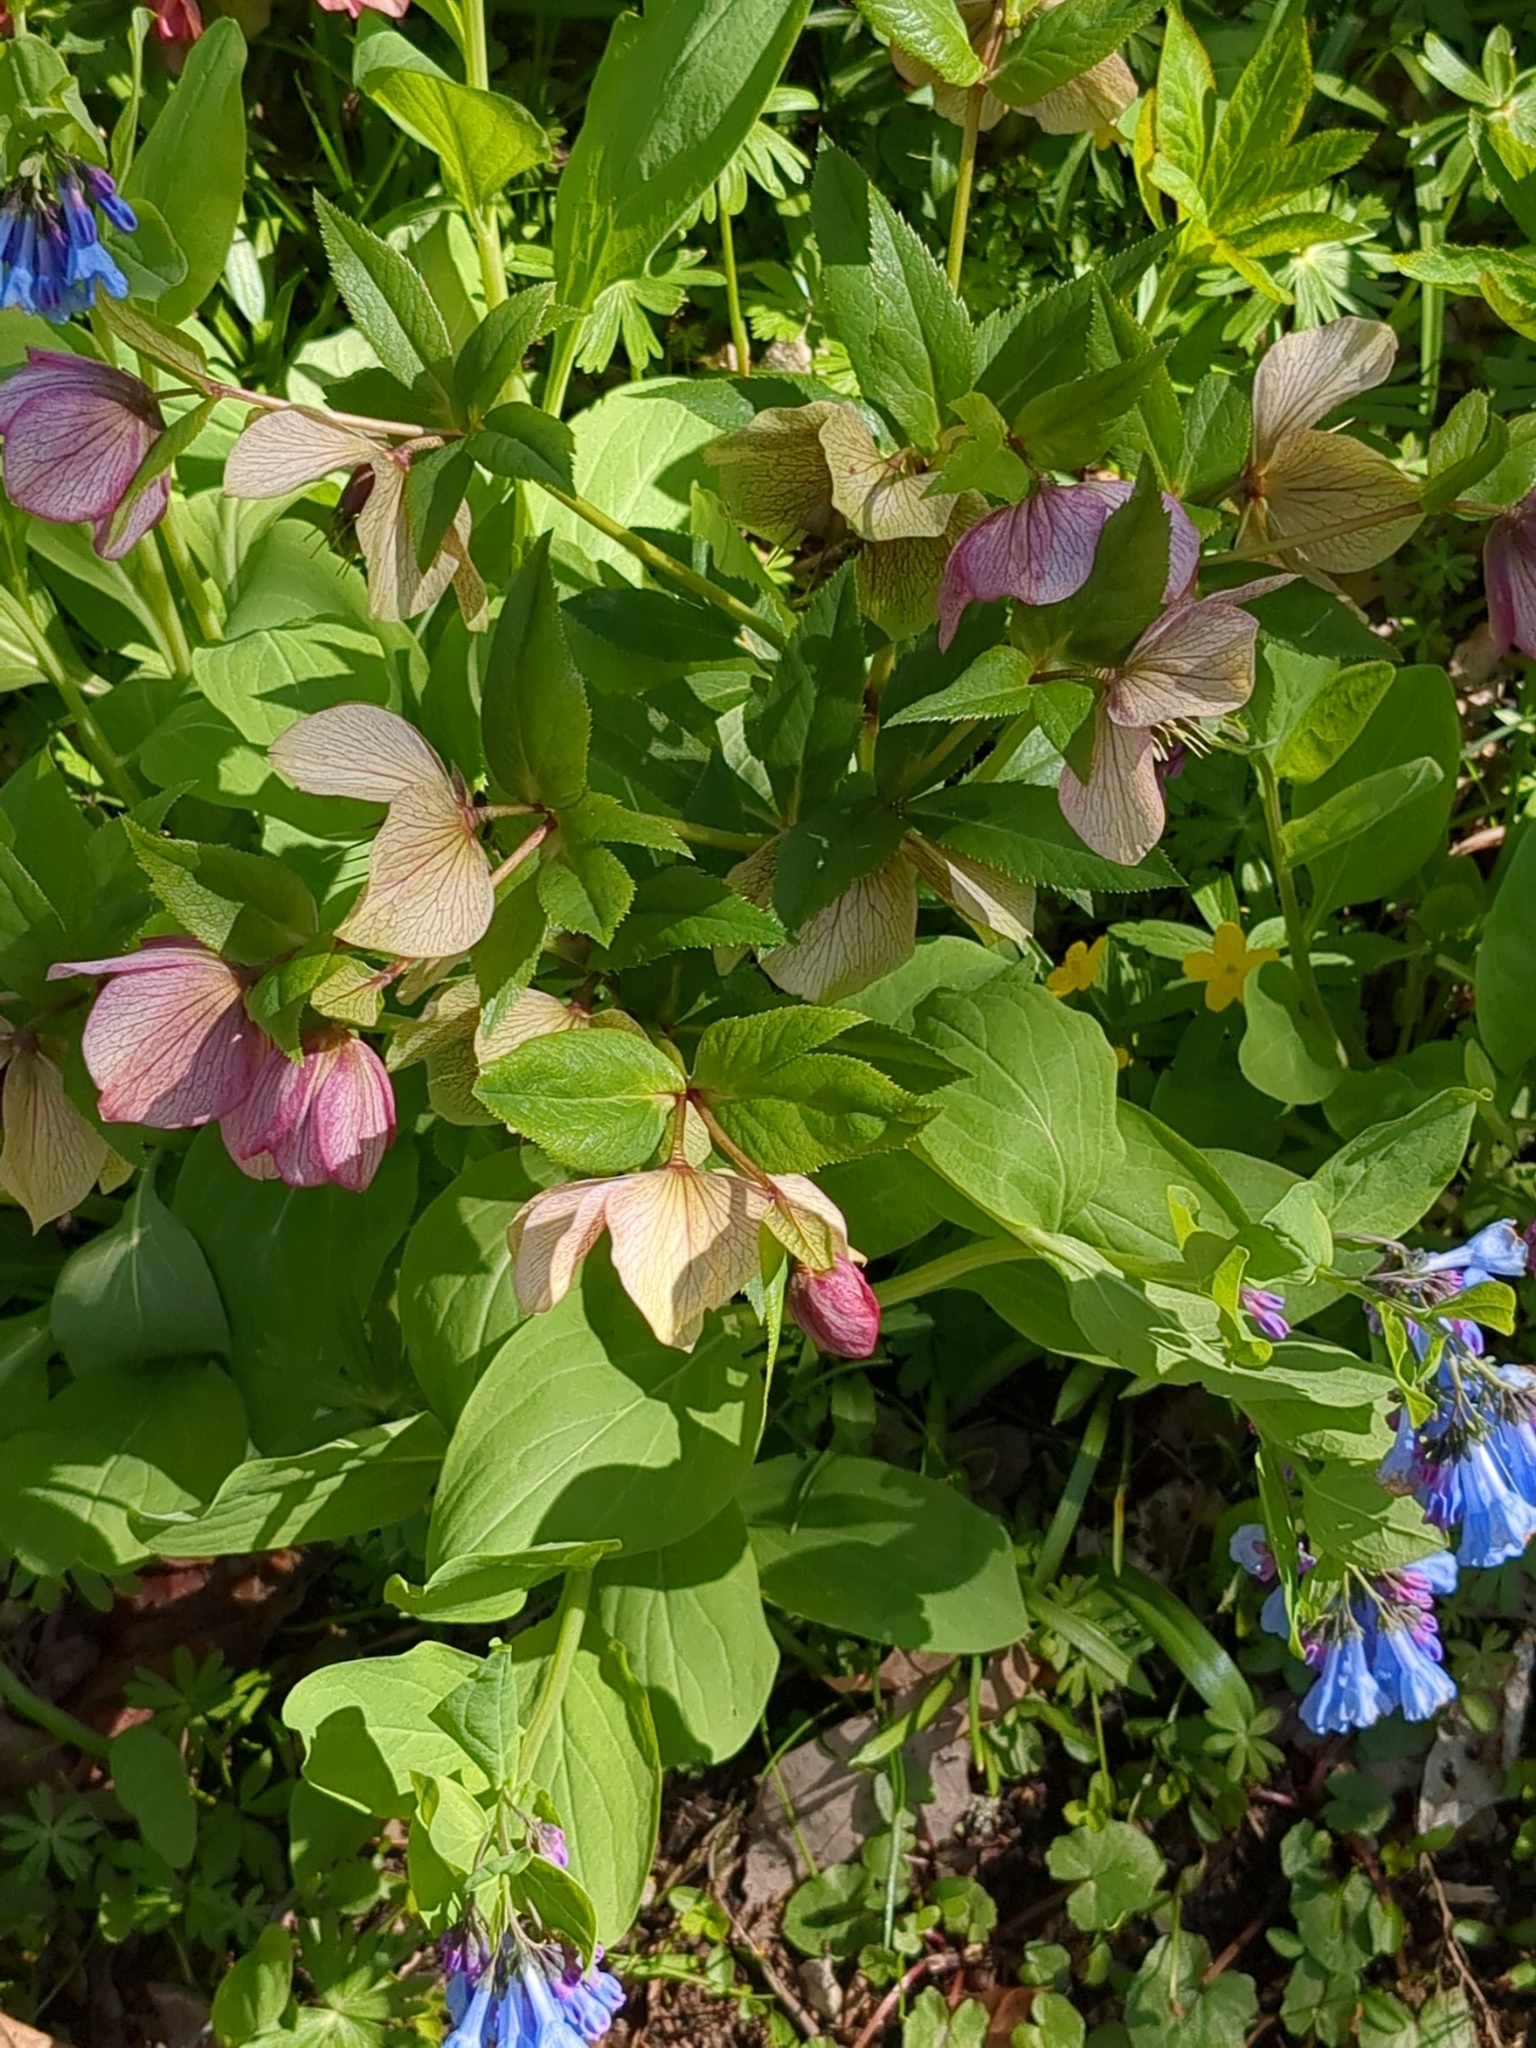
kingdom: Plantae
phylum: Tracheophyta
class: Magnoliopsida
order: Ranunculales
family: Ranunculaceae
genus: Helleborus
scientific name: Helleborus orientalis
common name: Lenten-rose
